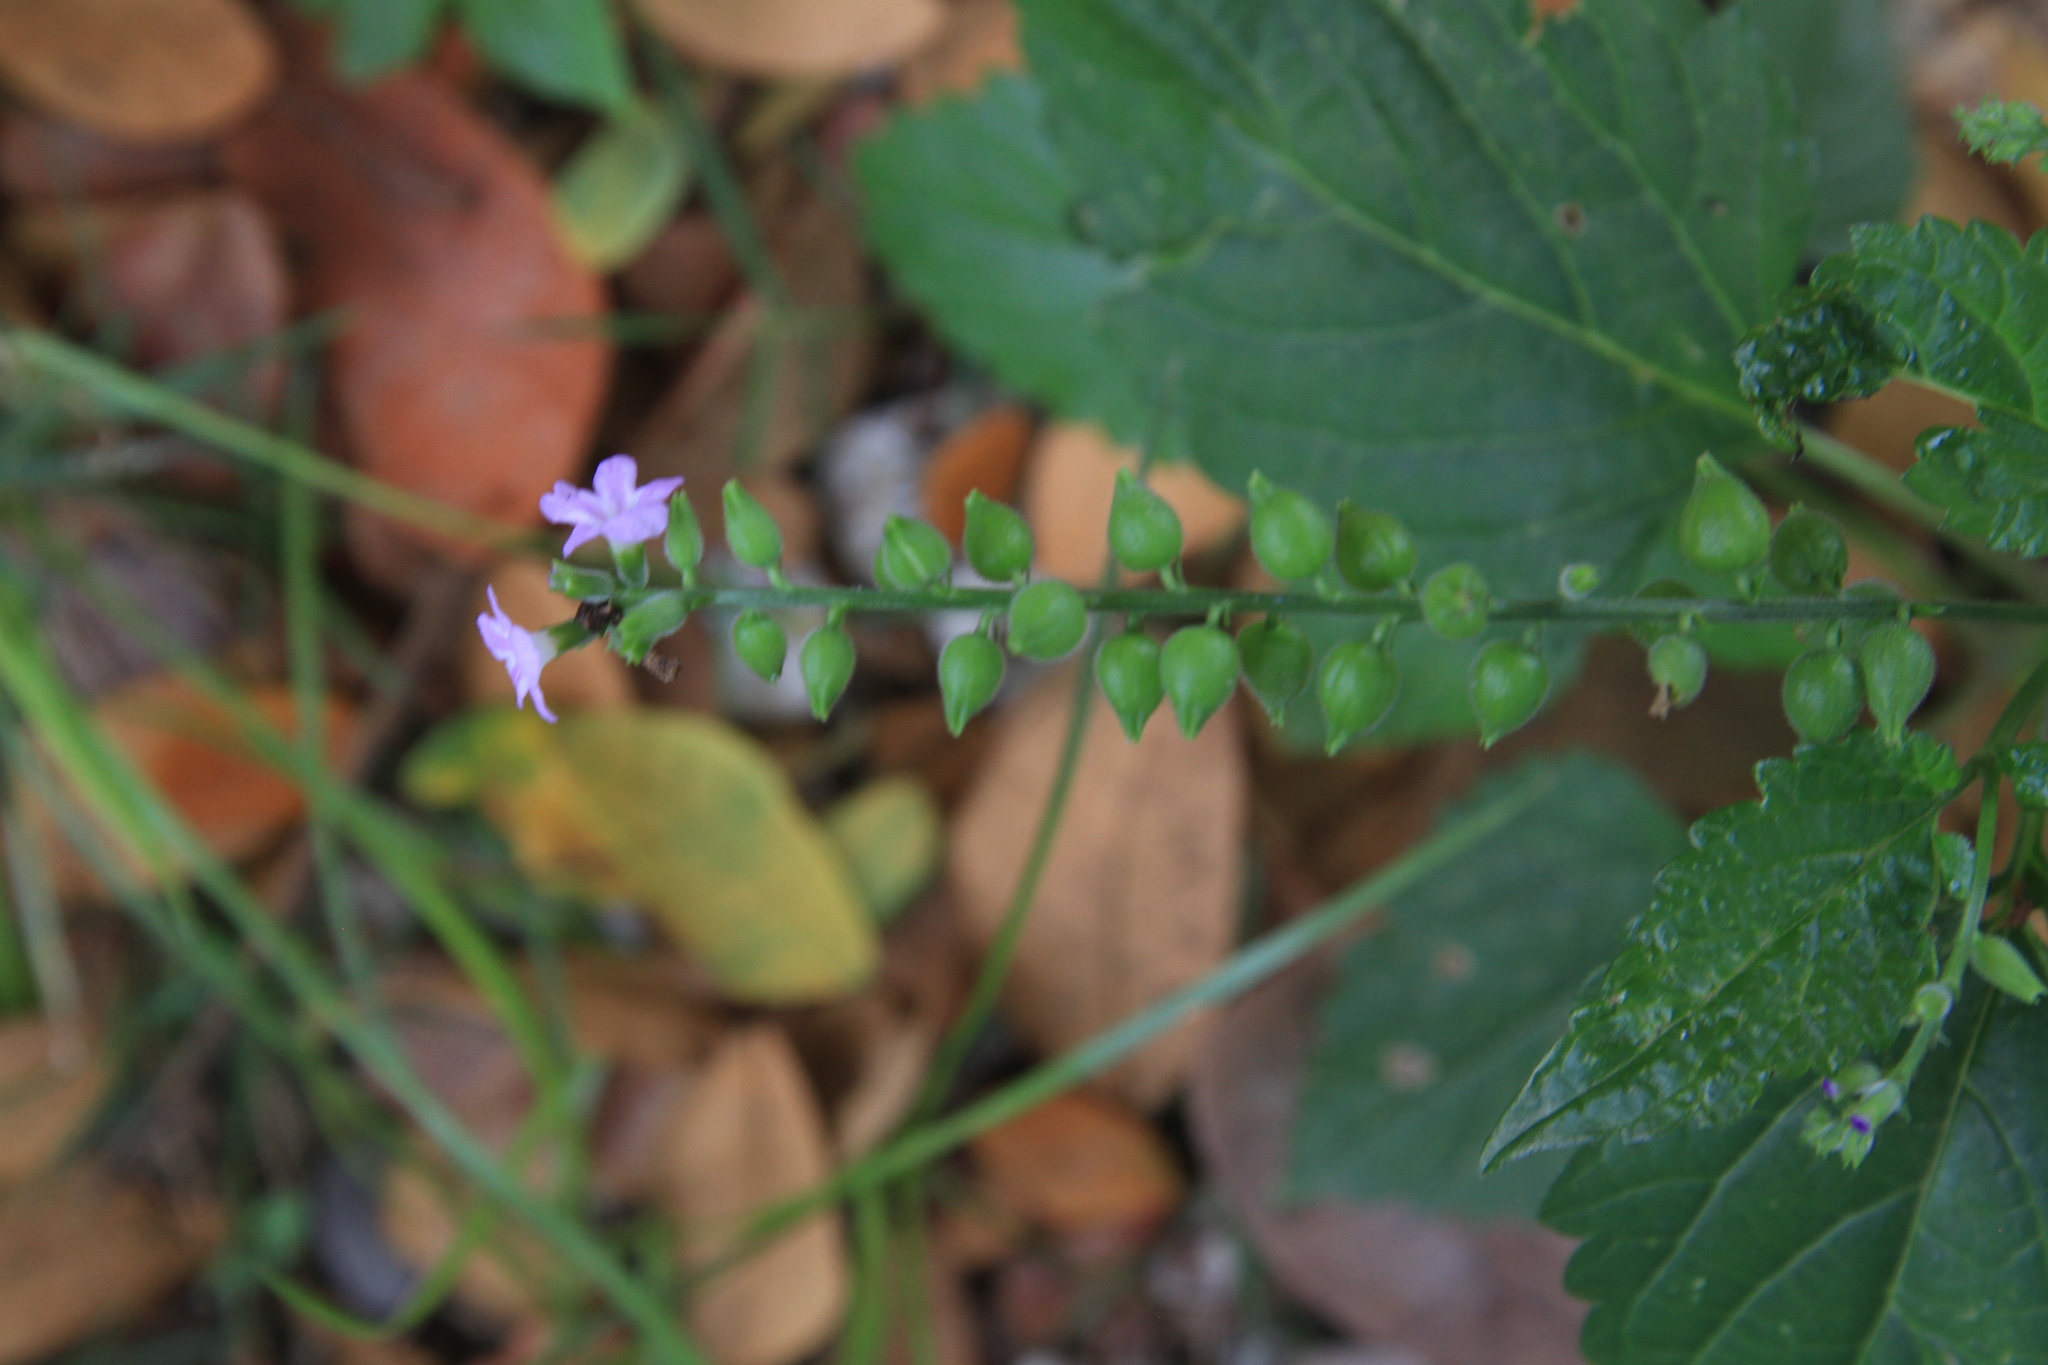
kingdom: Plantae
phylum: Tracheophyta
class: Magnoliopsida
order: Lamiales
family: Verbenaceae
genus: Priva
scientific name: Priva lappulacea
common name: Fasten-'pon-coat
